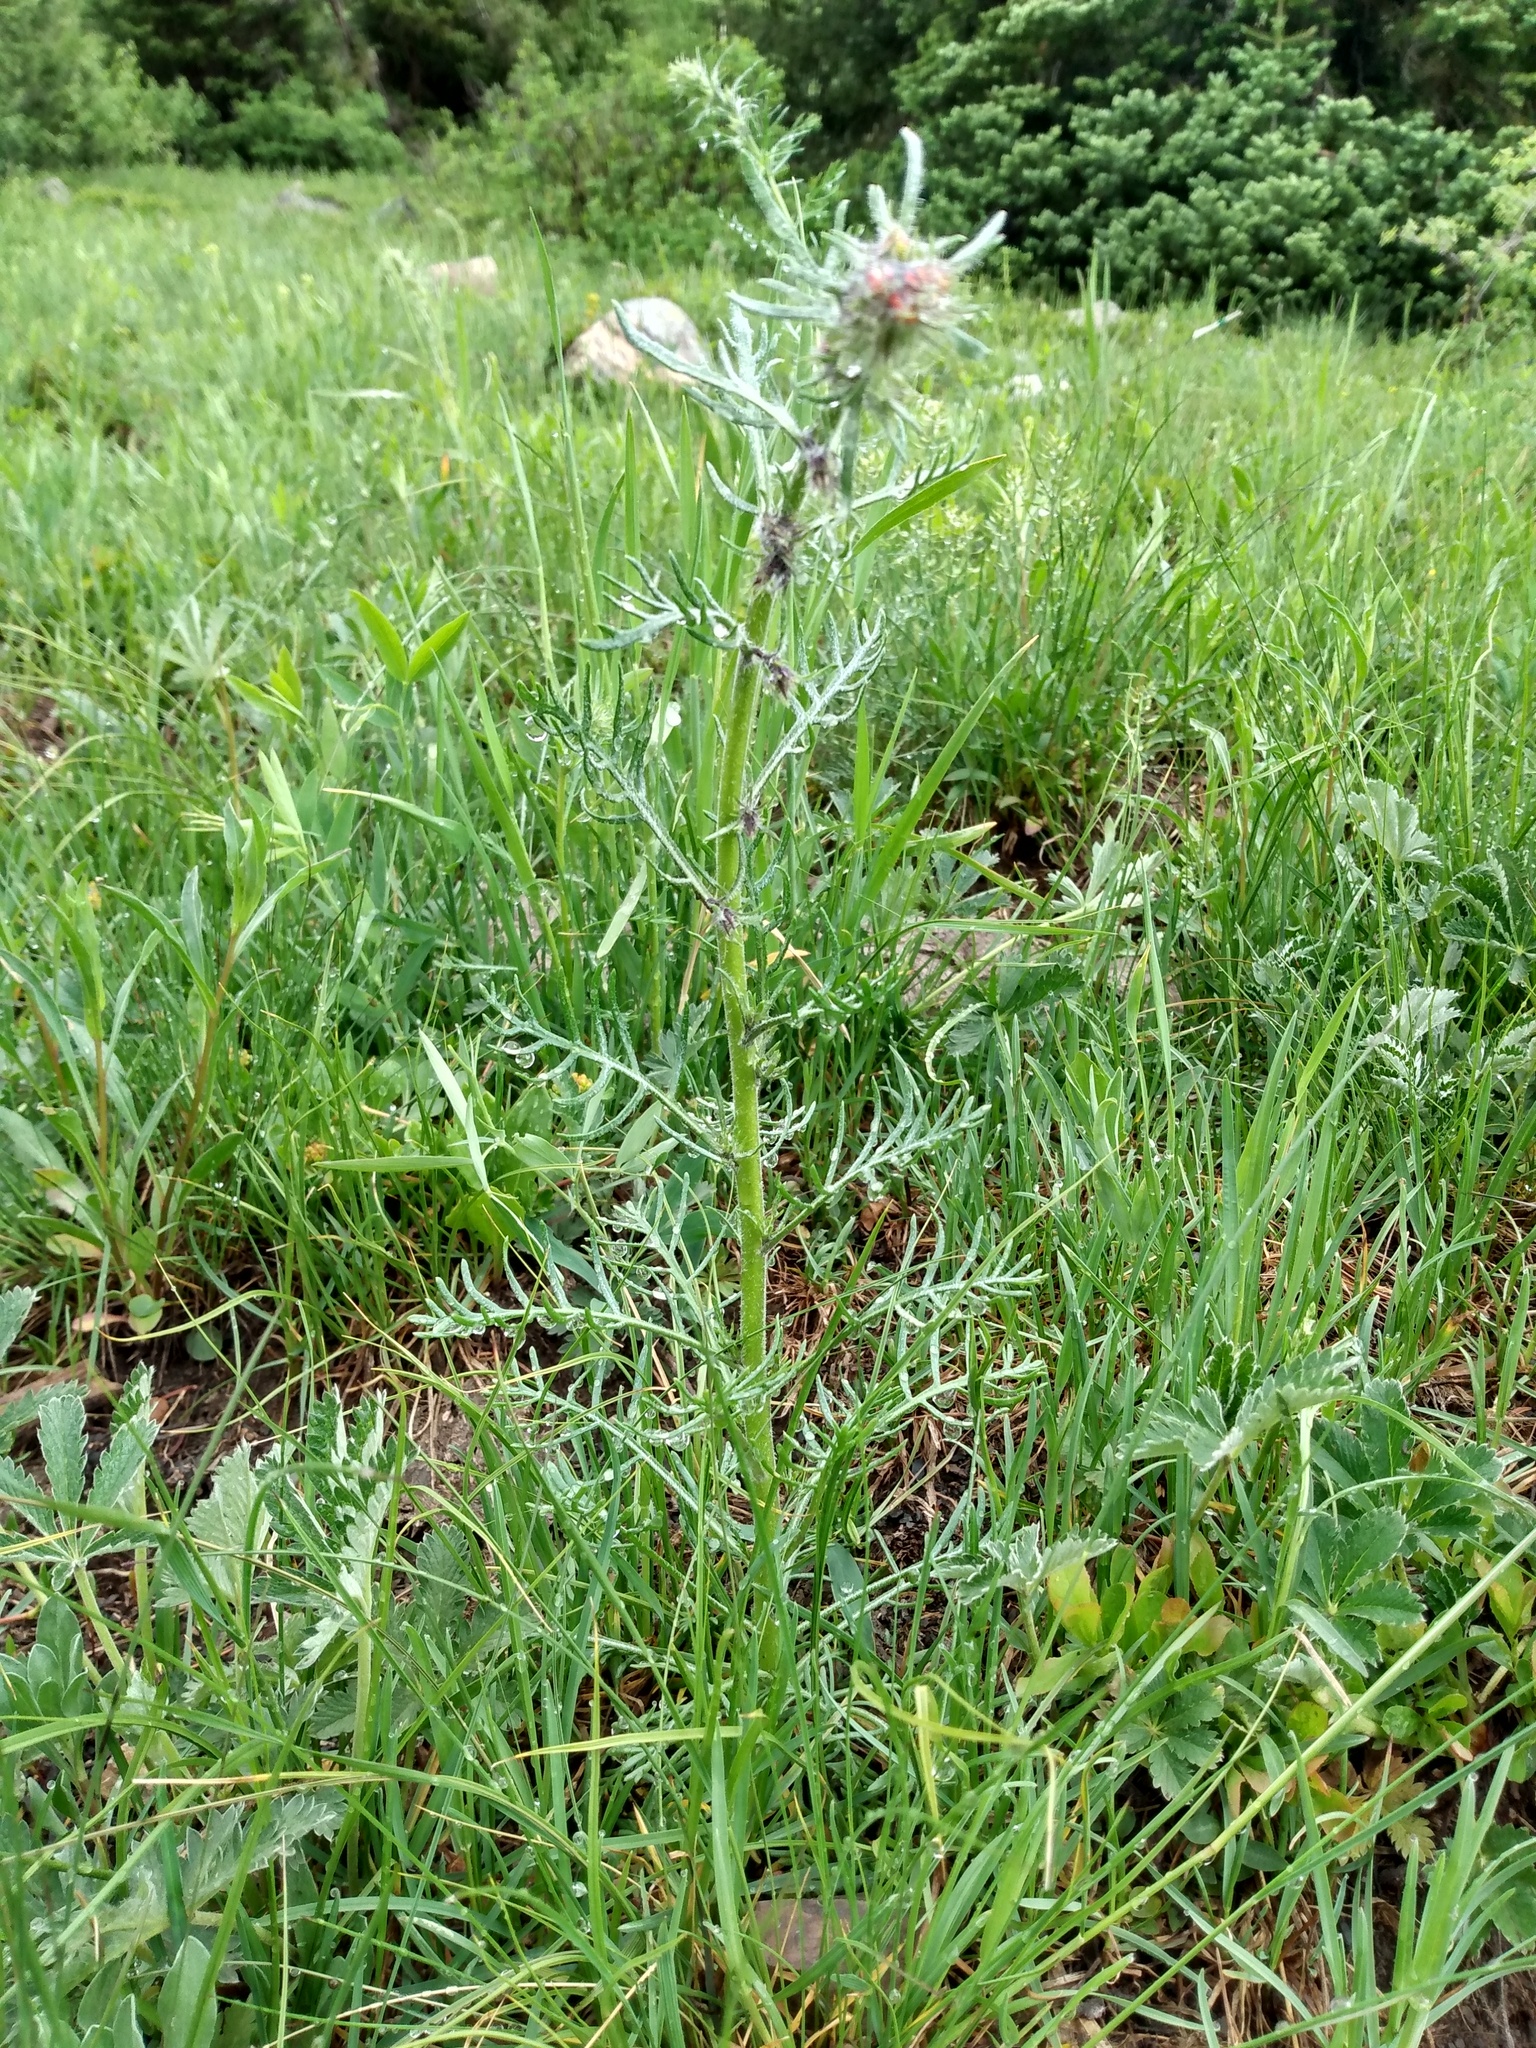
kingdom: Plantae
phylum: Tracheophyta
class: Magnoliopsida
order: Ericales
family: Polemoniaceae
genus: Ipomopsis
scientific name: Ipomopsis aggregata
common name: Scarlet gilia
